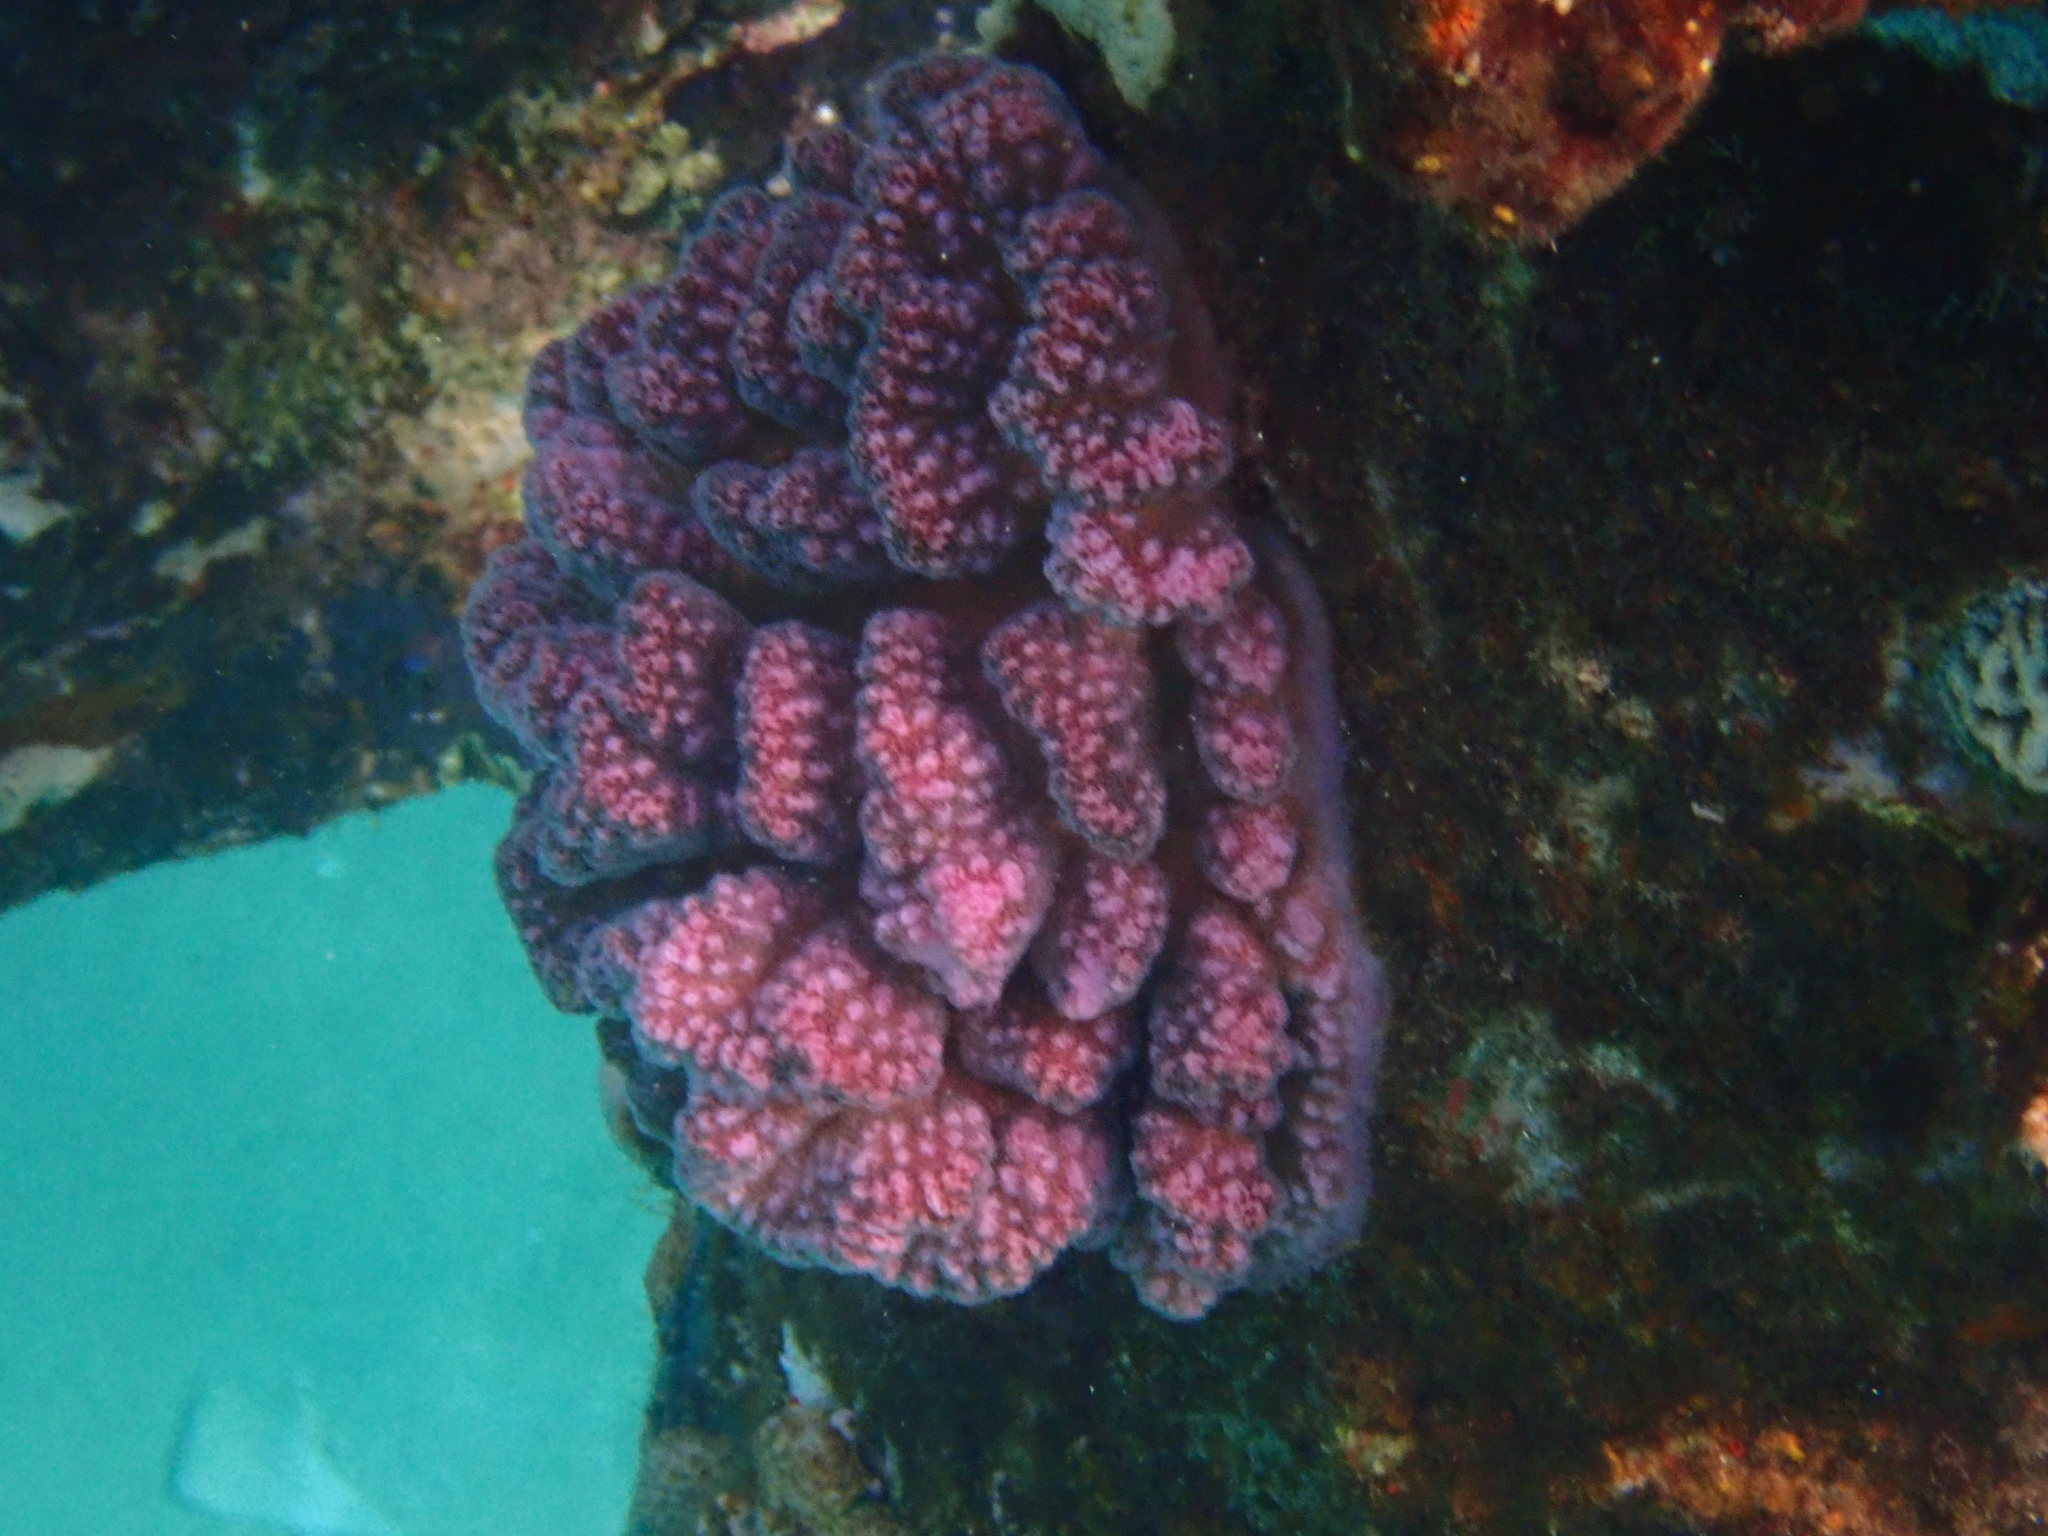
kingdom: Animalia
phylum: Cnidaria
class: Anthozoa
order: Scleractinia
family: Pocilloporidae
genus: Pocillopora
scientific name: Pocillopora verrucosa
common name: Cauliflower coral
